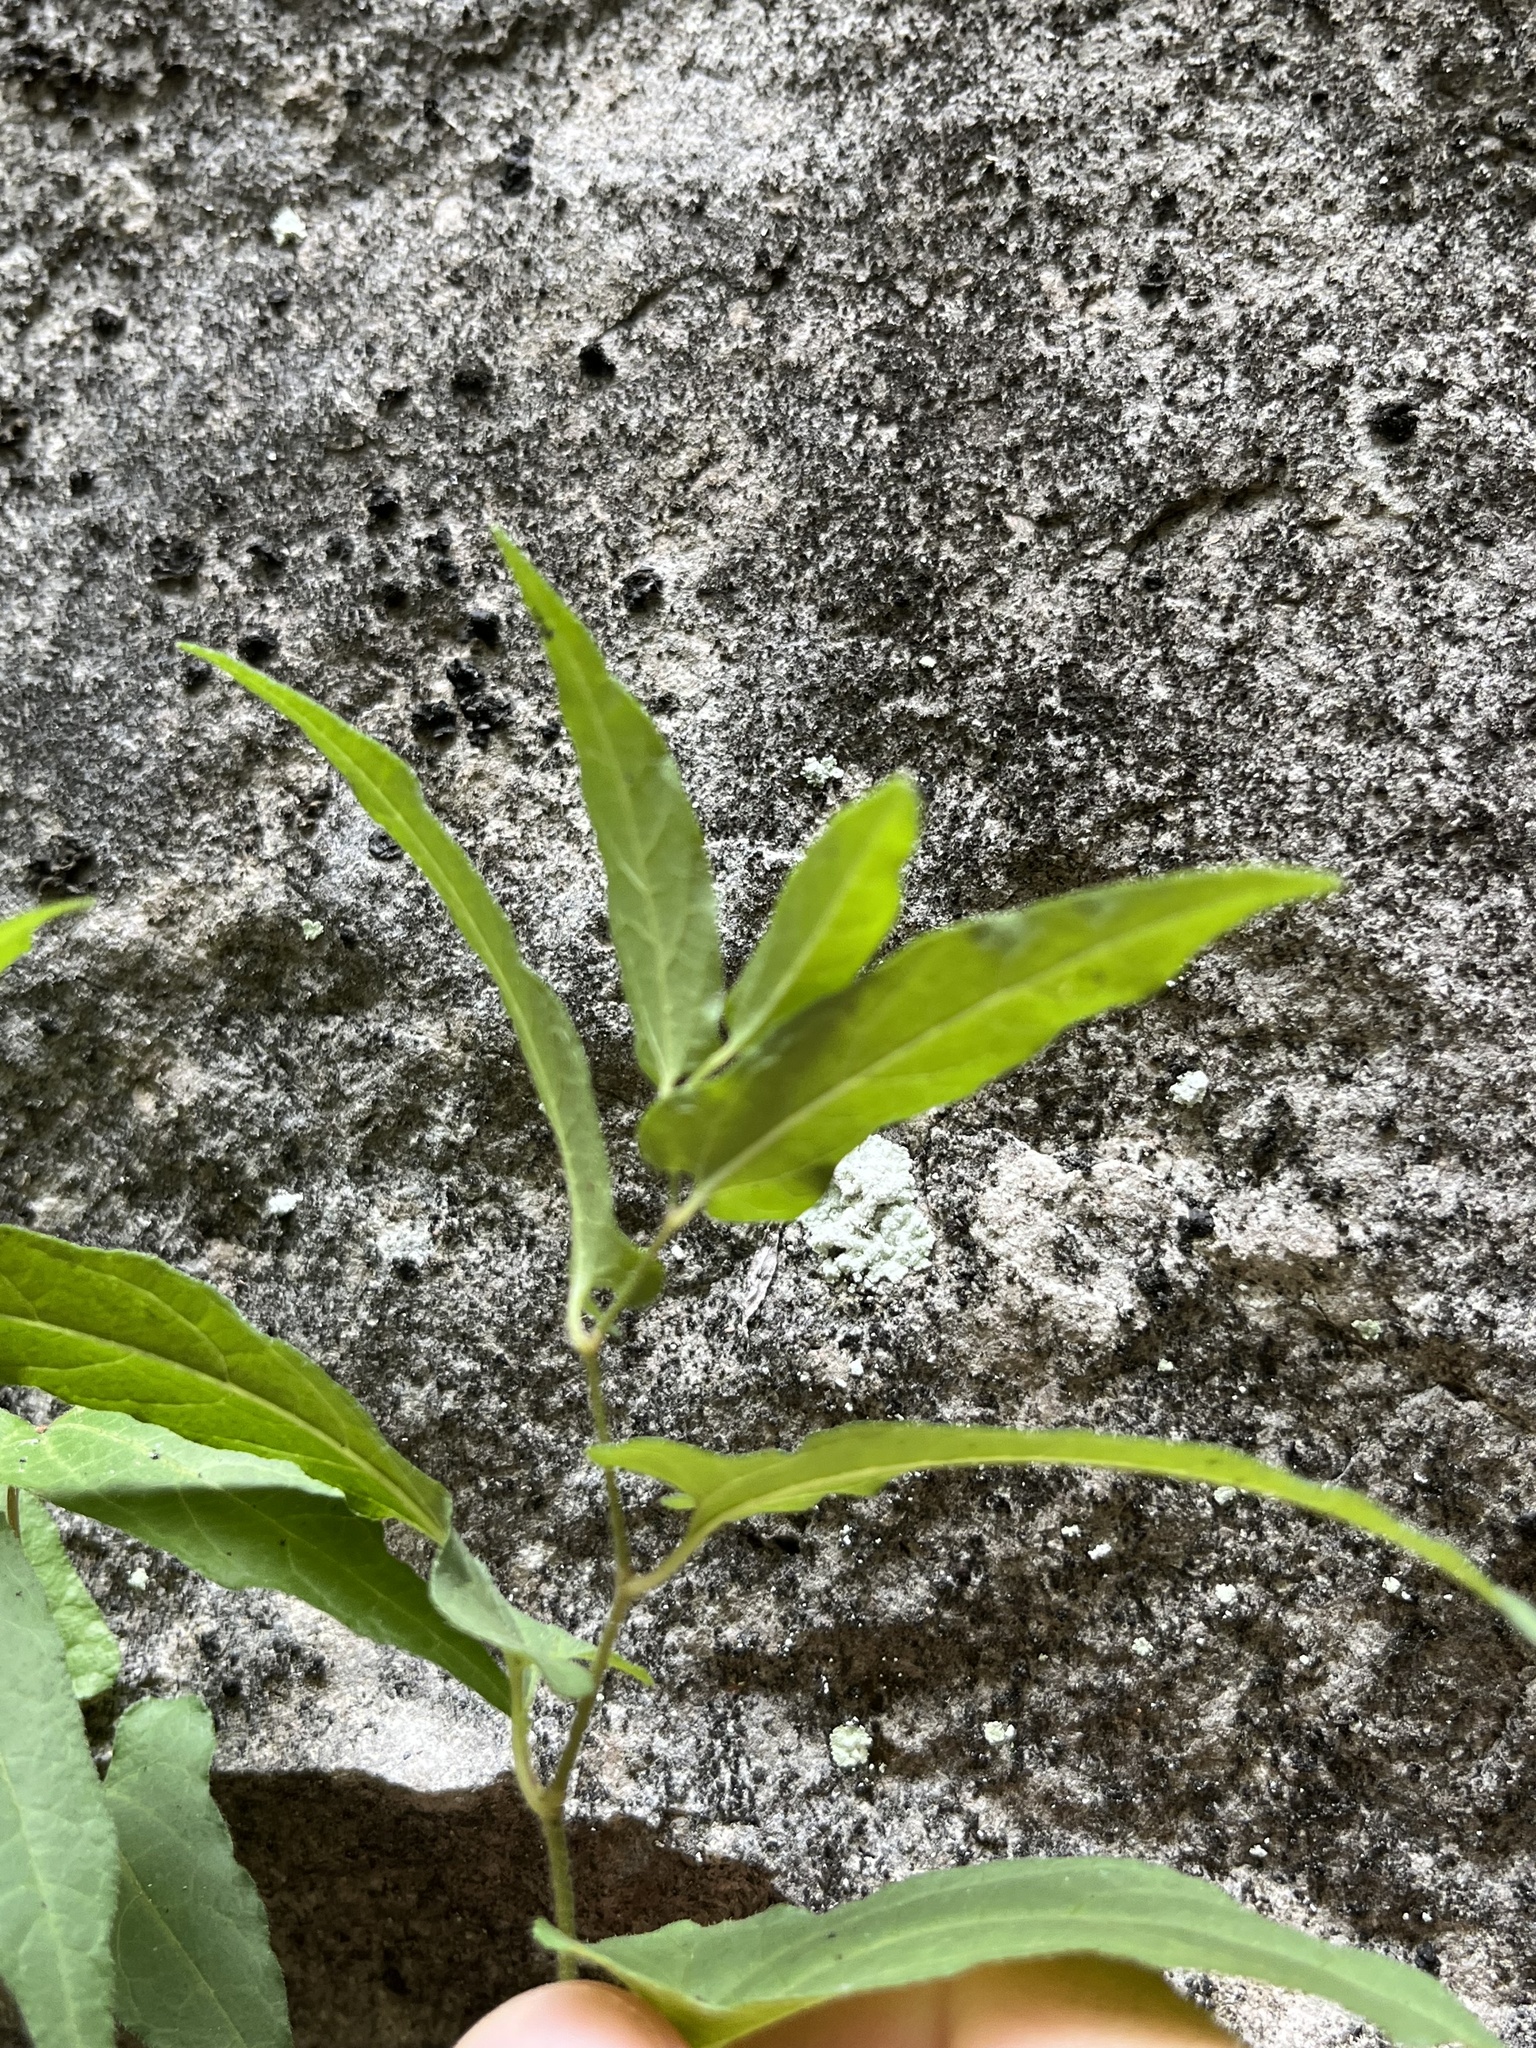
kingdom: Plantae
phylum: Tracheophyta
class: Magnoliopsida
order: Piperales
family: Aristolochiaceae
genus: Endodeca
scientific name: Endodeca serpentaria
